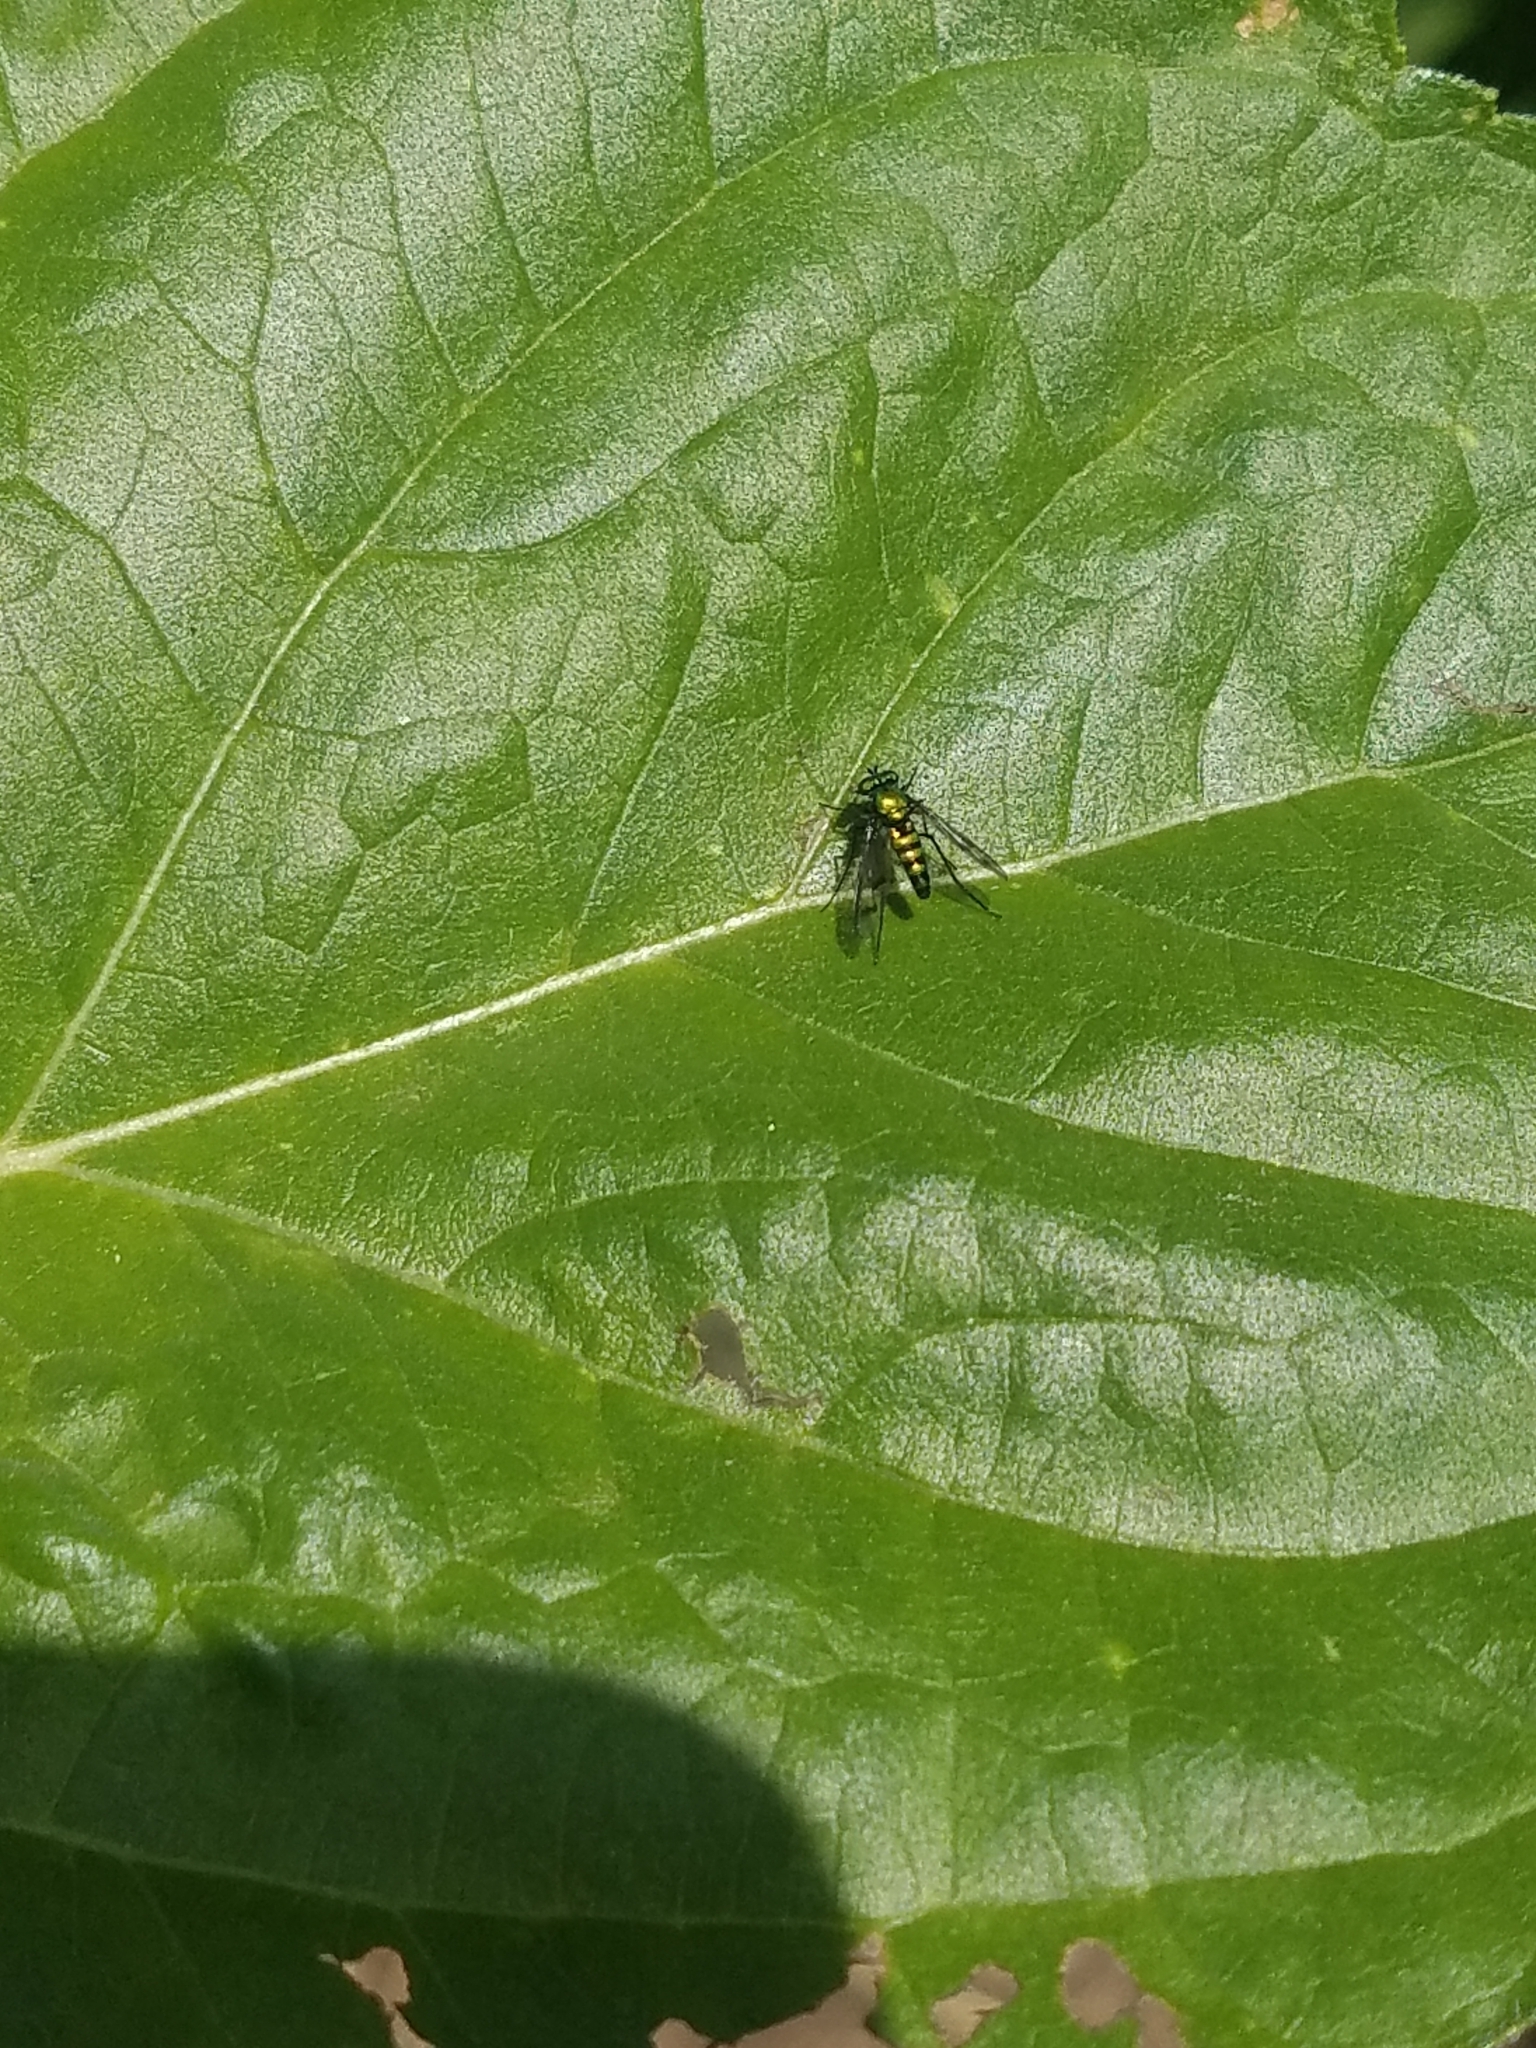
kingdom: Animalia
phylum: Arthropoda
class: Insecta
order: Diptera
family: Dolichopodidae
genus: Condylostylus
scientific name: Condylostylus occidentalis
